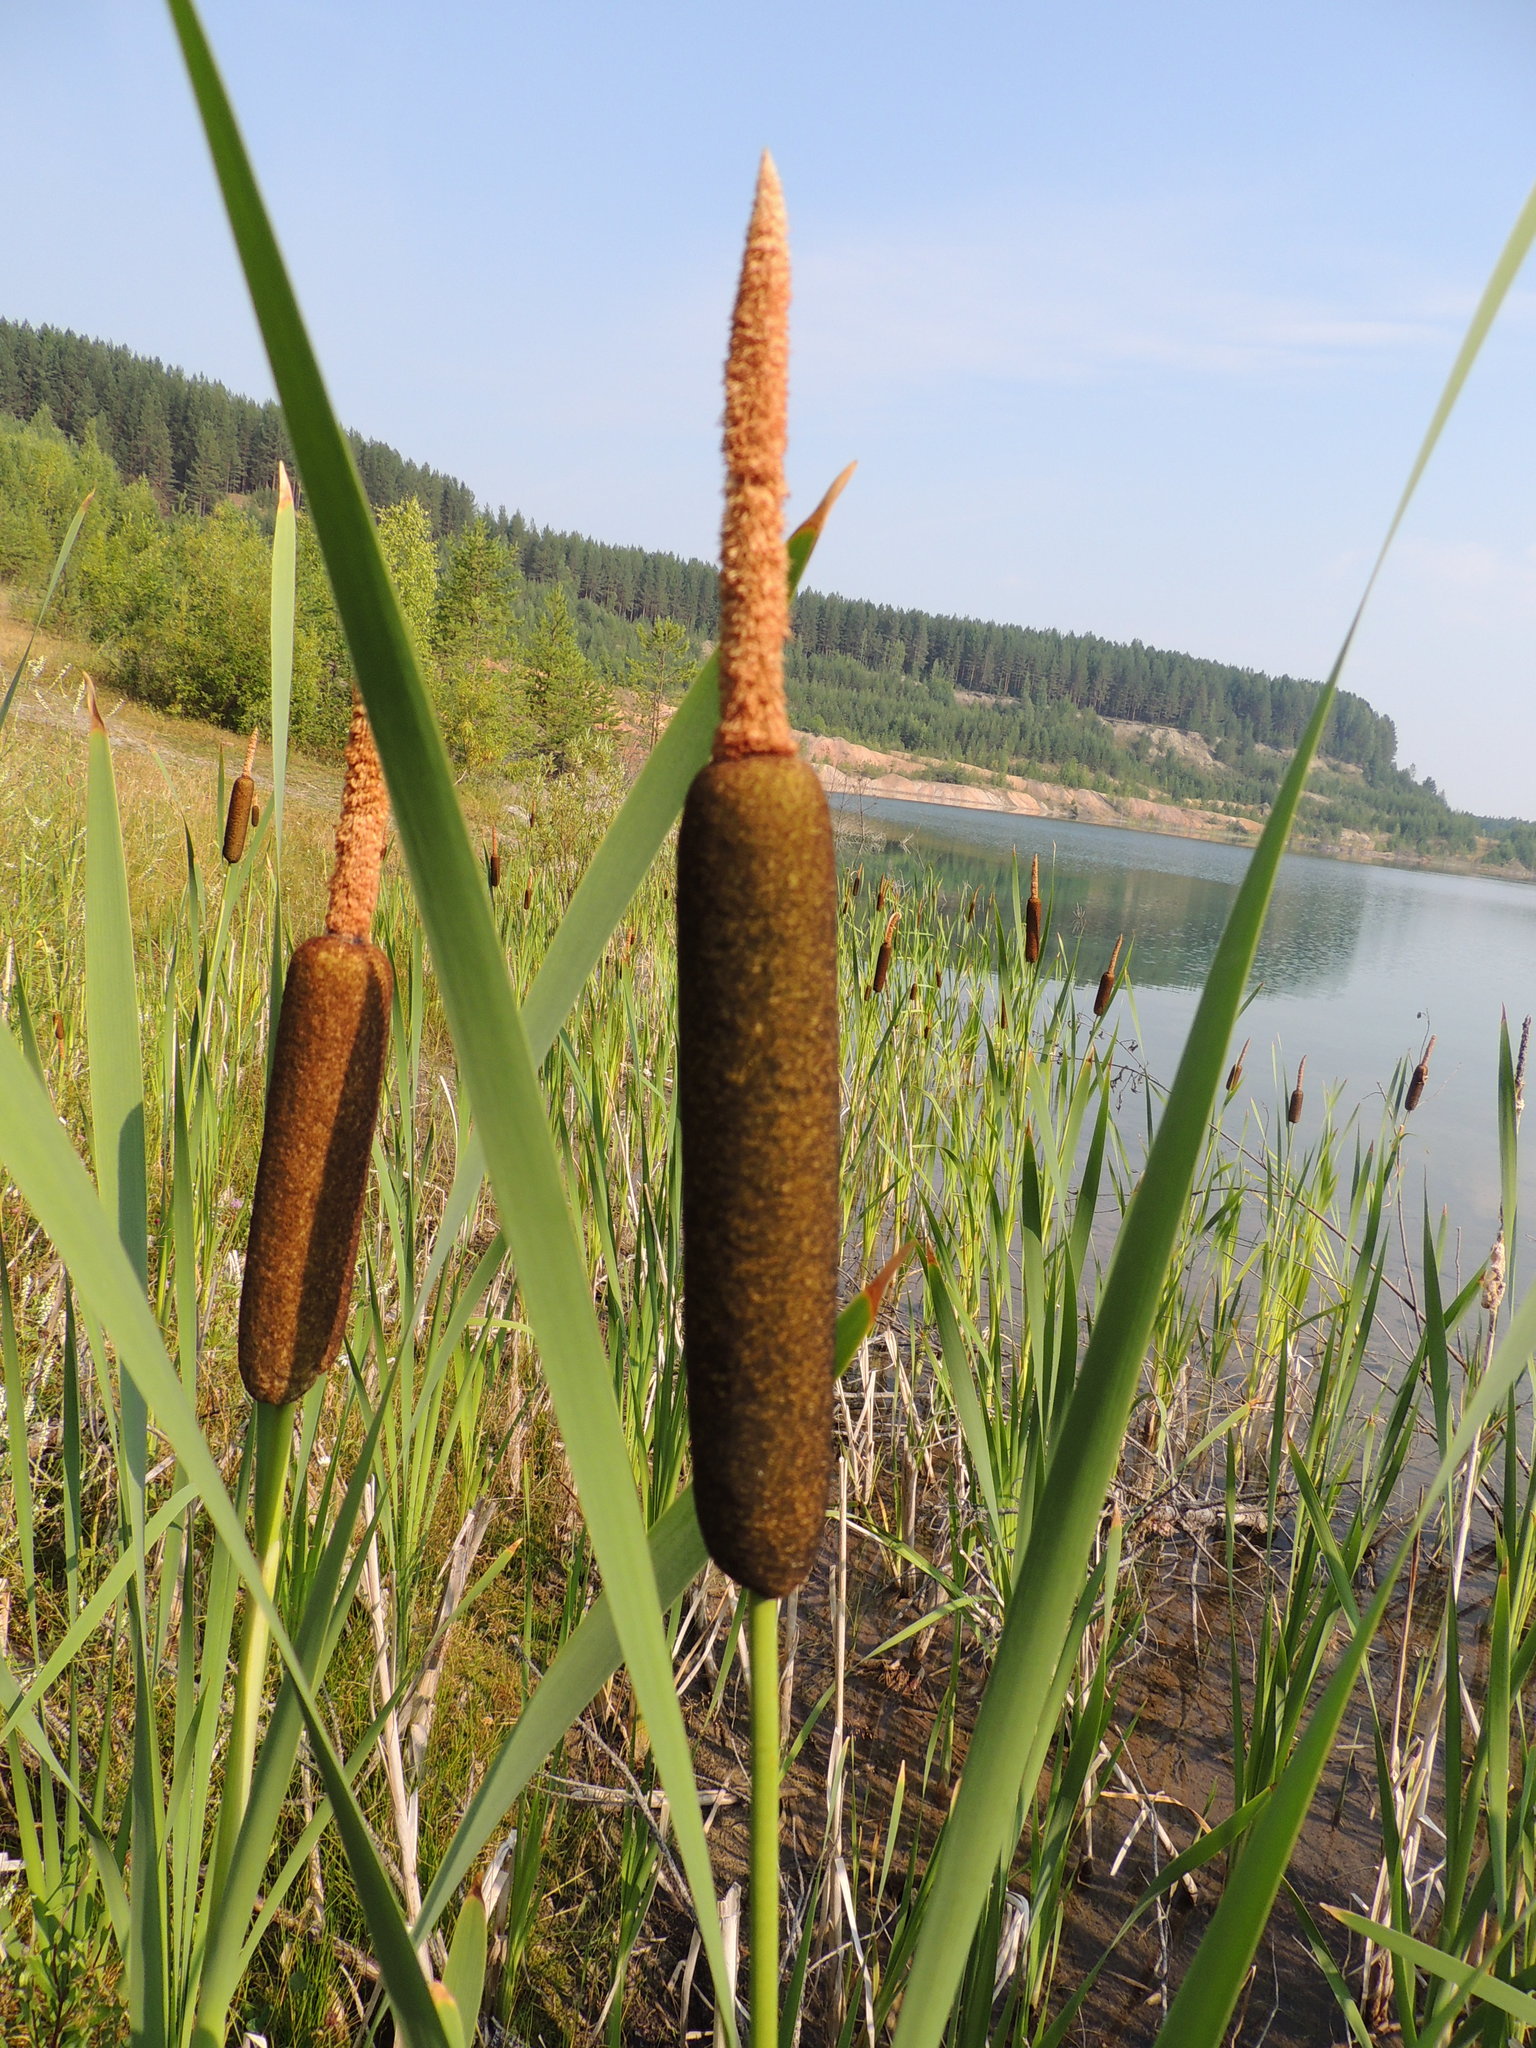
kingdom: Plantae
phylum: Tracheophyta
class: Liliopsida
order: Poales
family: Typhaceae
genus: Typha
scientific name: Typha latifolia
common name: Broadleaf cattail
